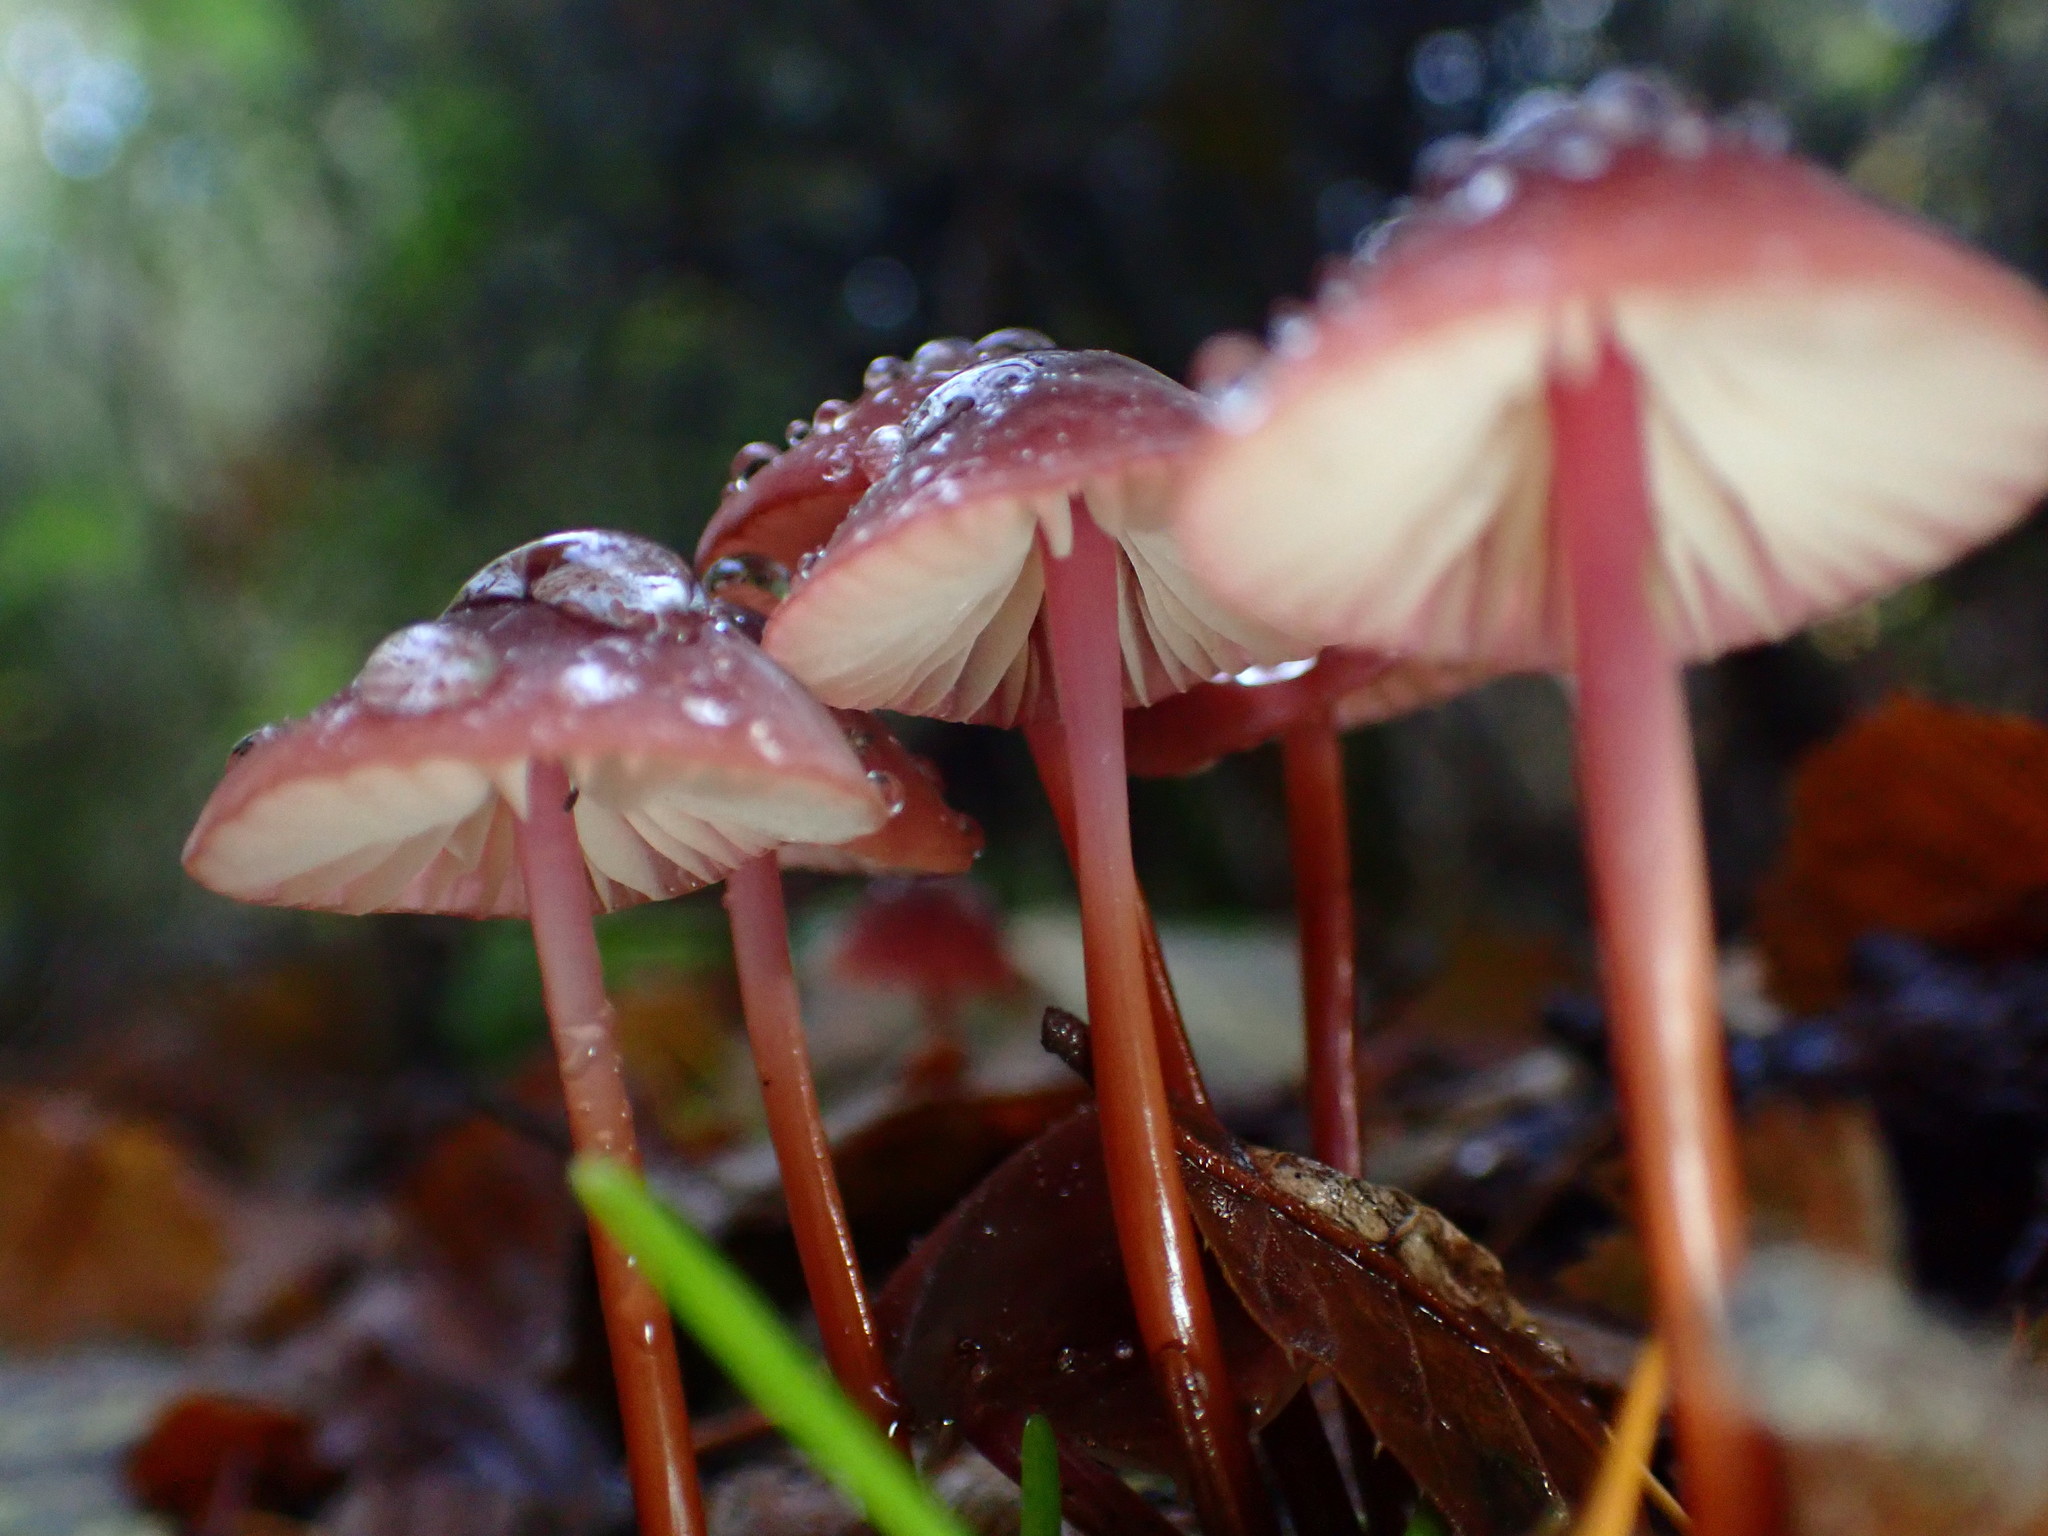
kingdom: Fungi
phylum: Basidiomycota
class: Agaricomycetes
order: Agaricales
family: Marasmiaceae
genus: Marasmius
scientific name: Marasmius plicatulus
